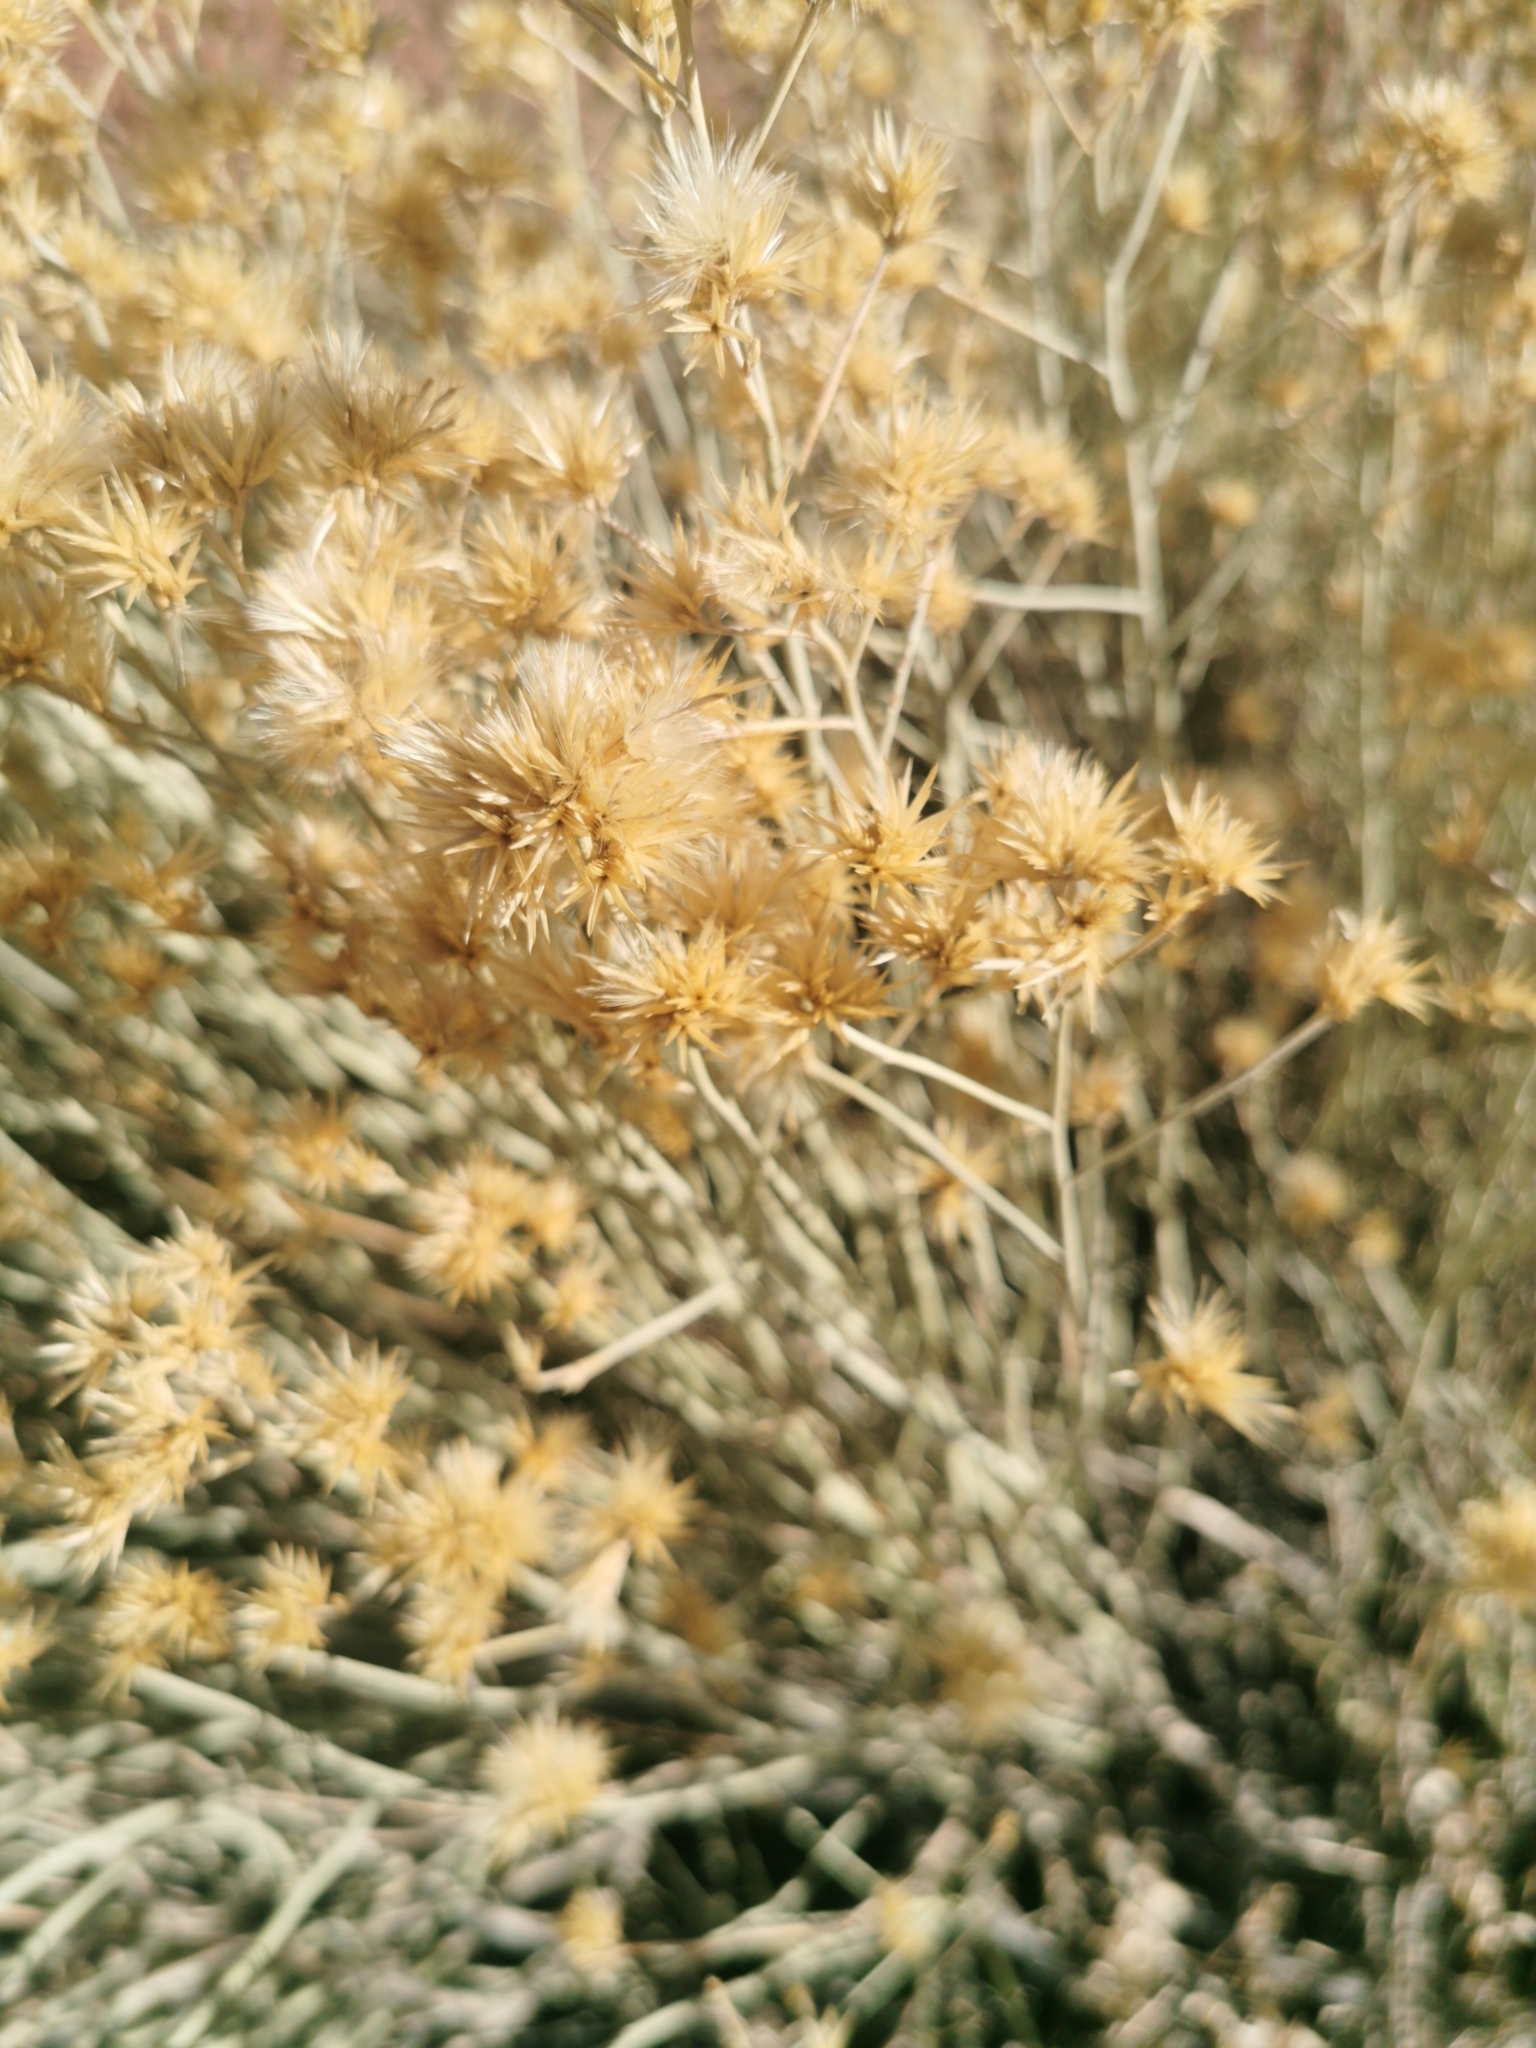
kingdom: Plantae
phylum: Tracheophyta
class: Magnoliopsida
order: Asterales
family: Asteraceae
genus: Ericameria
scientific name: Ericameria nauseosa
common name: Rubber rabbitbrush
